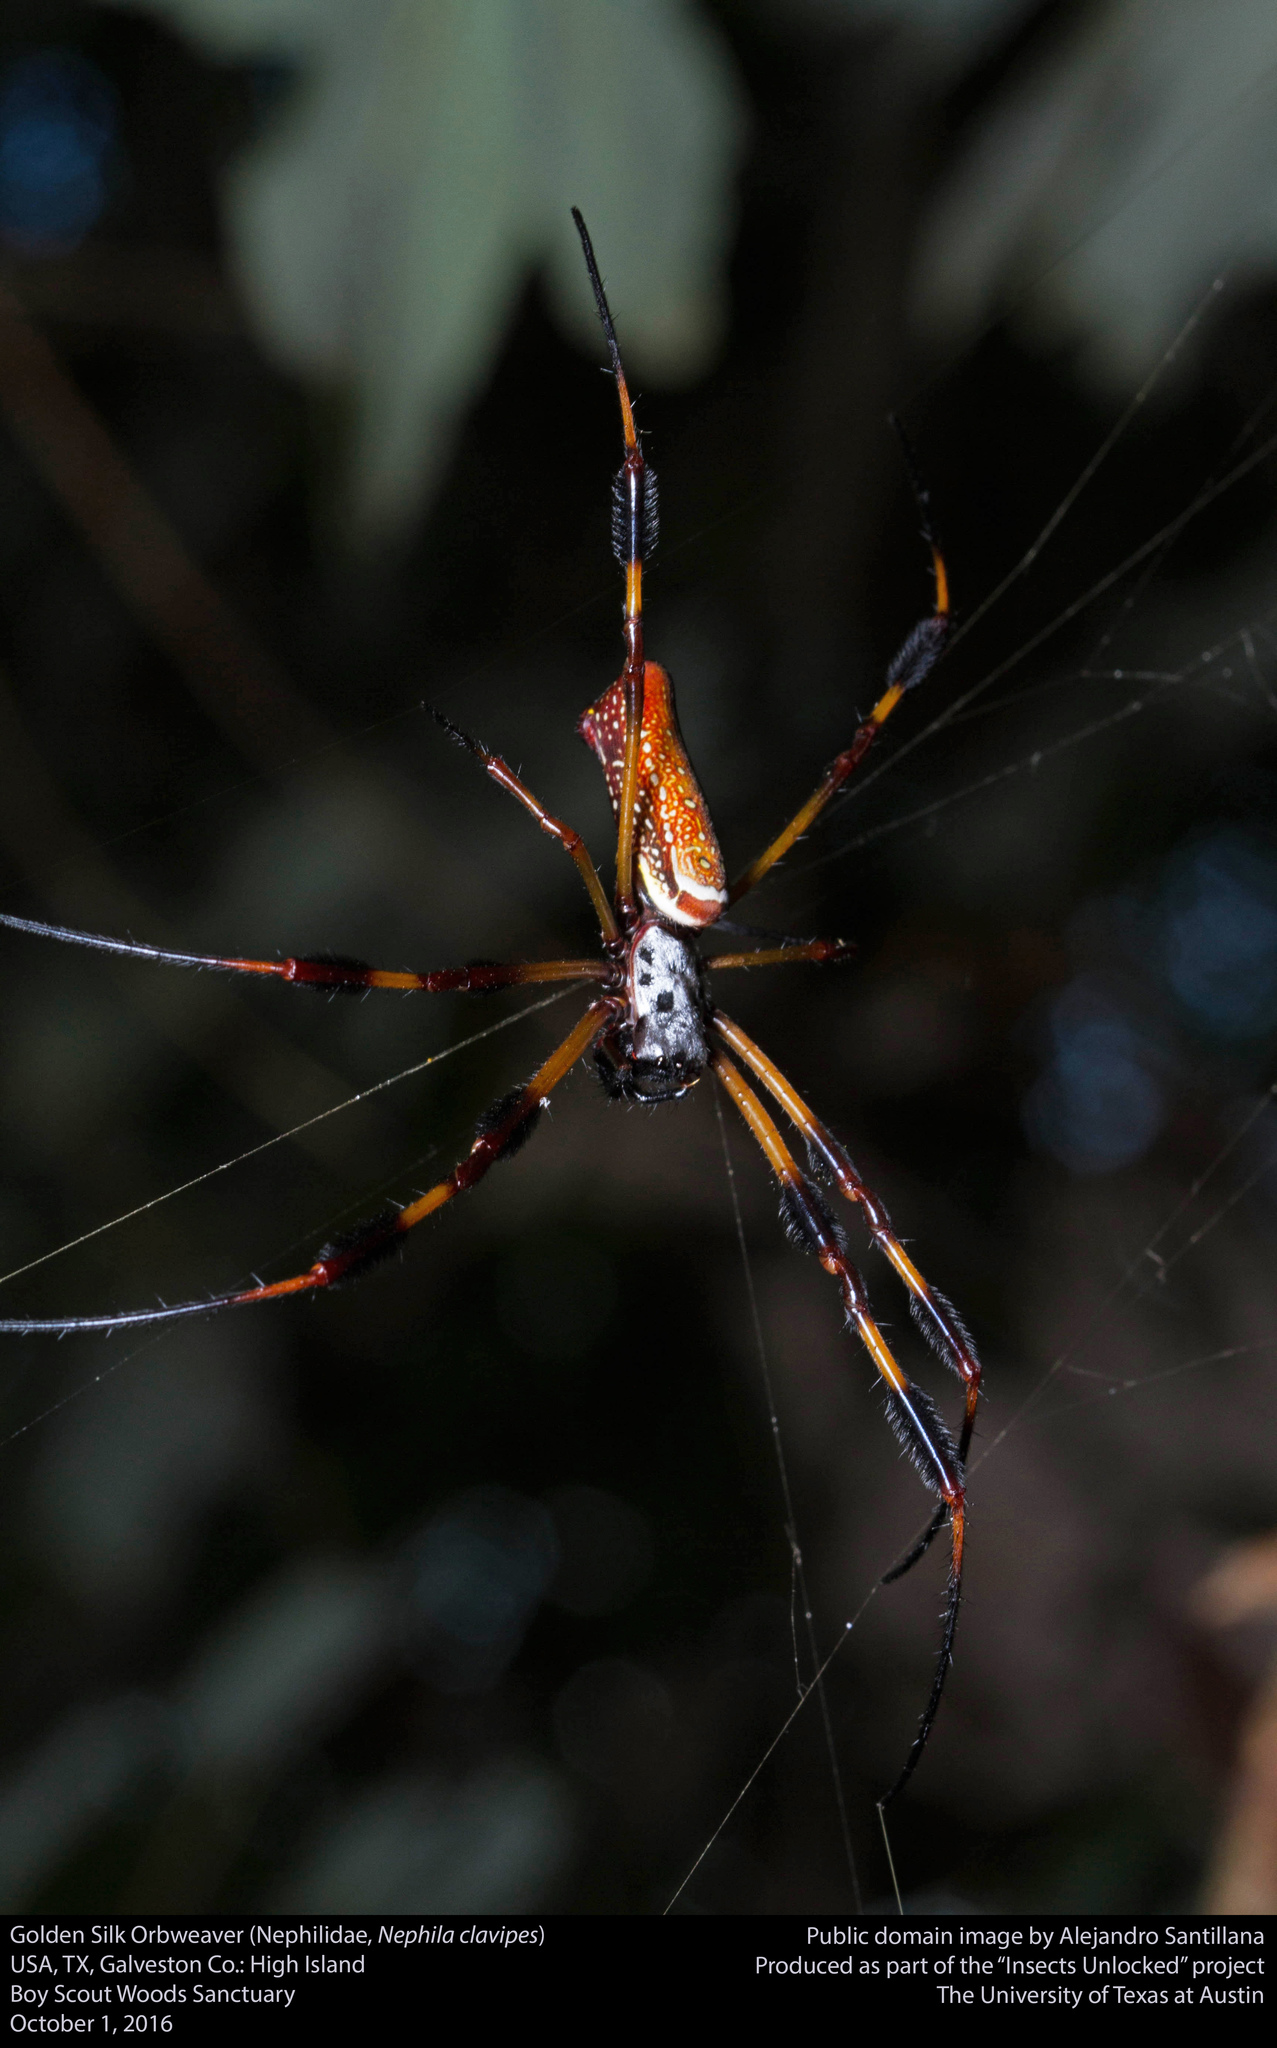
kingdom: Animalia
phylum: Arthropoda
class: Arachnida
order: Araneae
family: Araneidae
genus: Trichonephila
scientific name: Trichonephila clavipes
